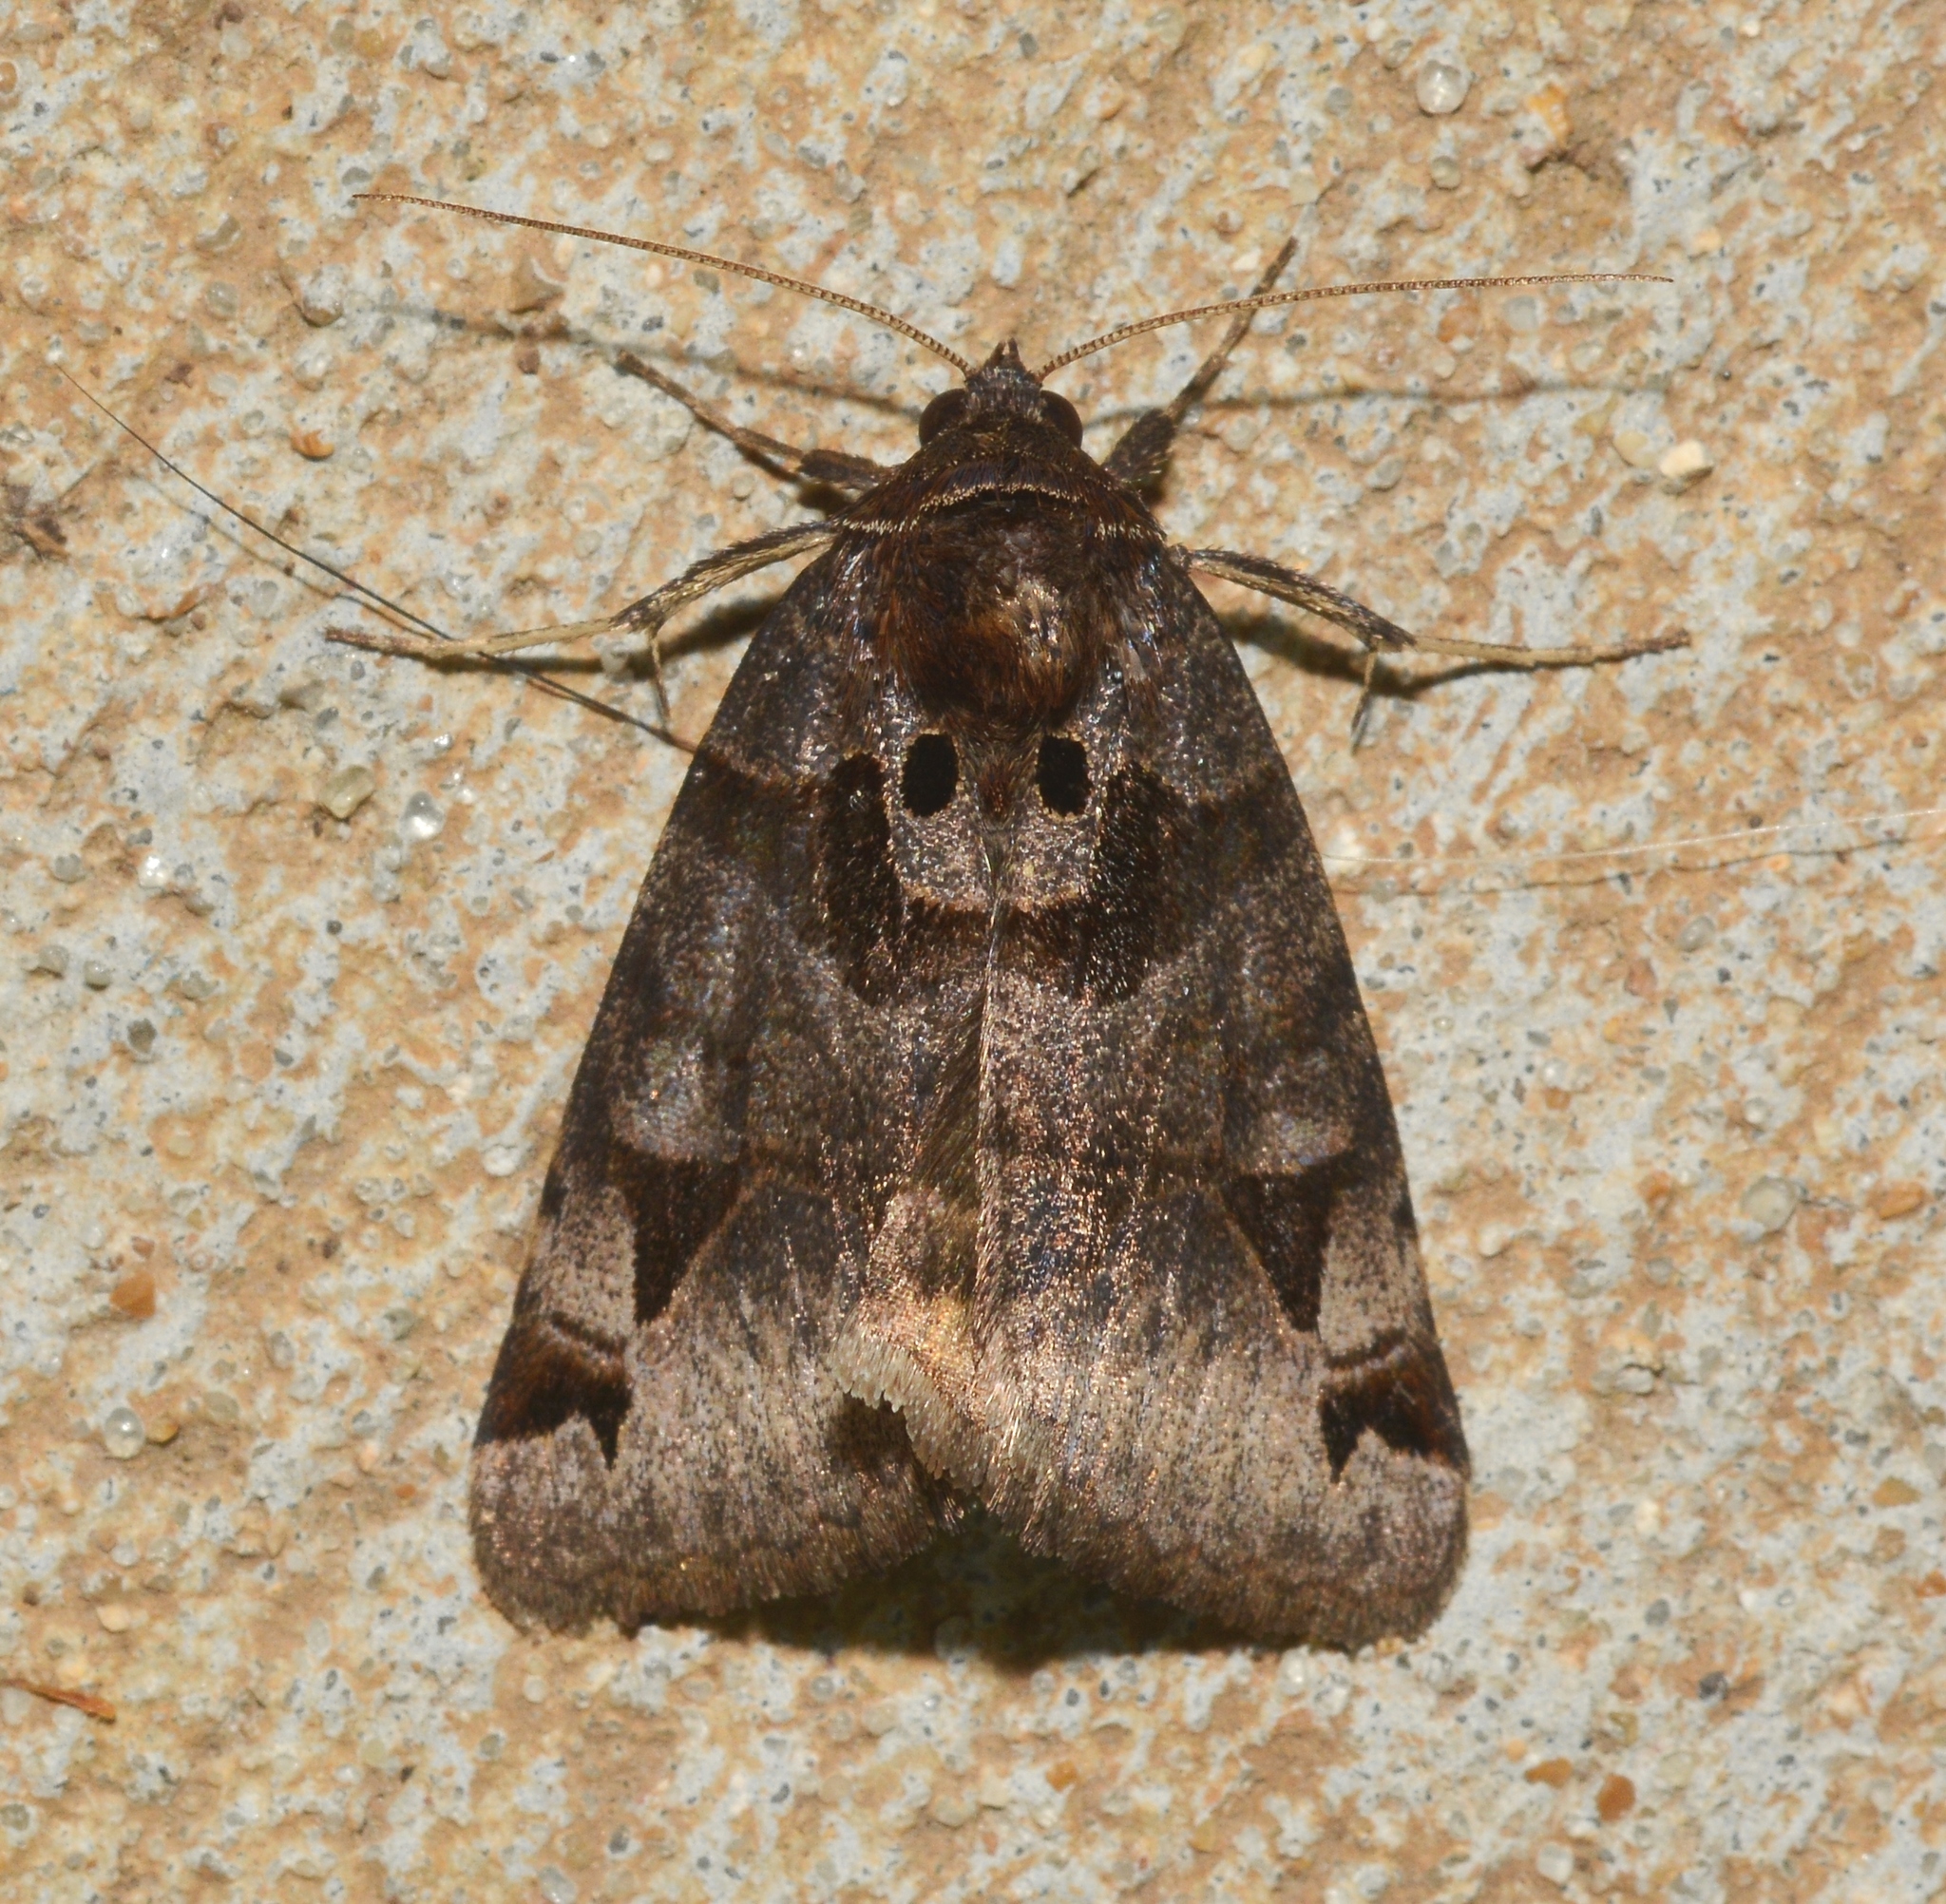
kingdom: Animalia
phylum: Arthropoda
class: Insecta
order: Lepidoptera
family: Erebidae
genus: Euclidia
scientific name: Euclidia cuspidea
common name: Toothed somberwing
